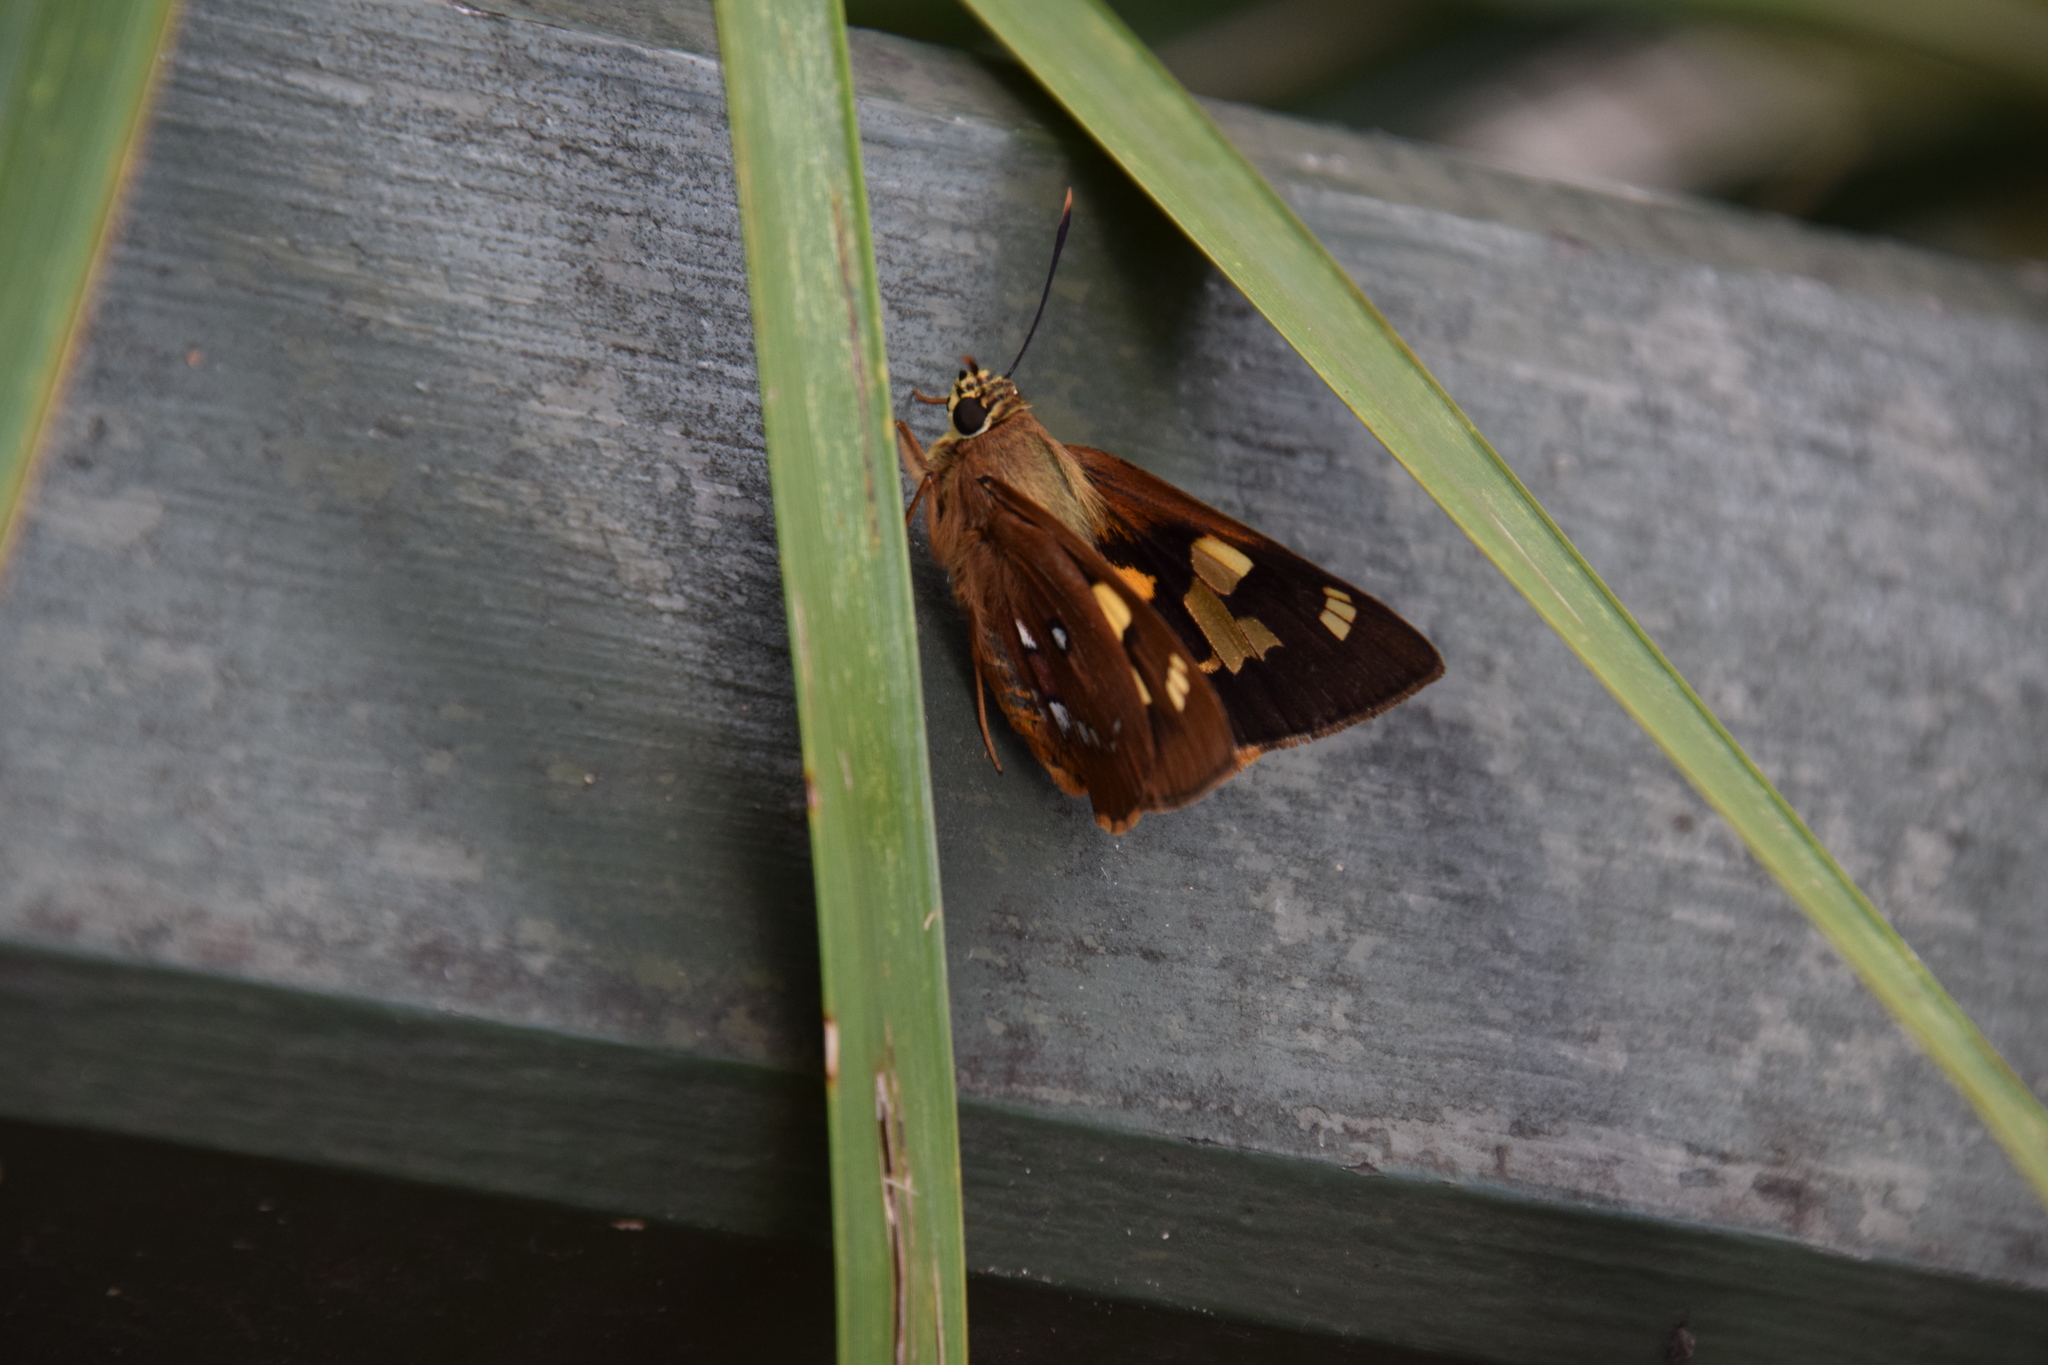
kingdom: Animalia
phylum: Arthropoda
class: Insecta
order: Lepidoptera
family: Hesperiidae
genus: Trapezites
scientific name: Trapezites symmomus
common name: Splendid ochre
